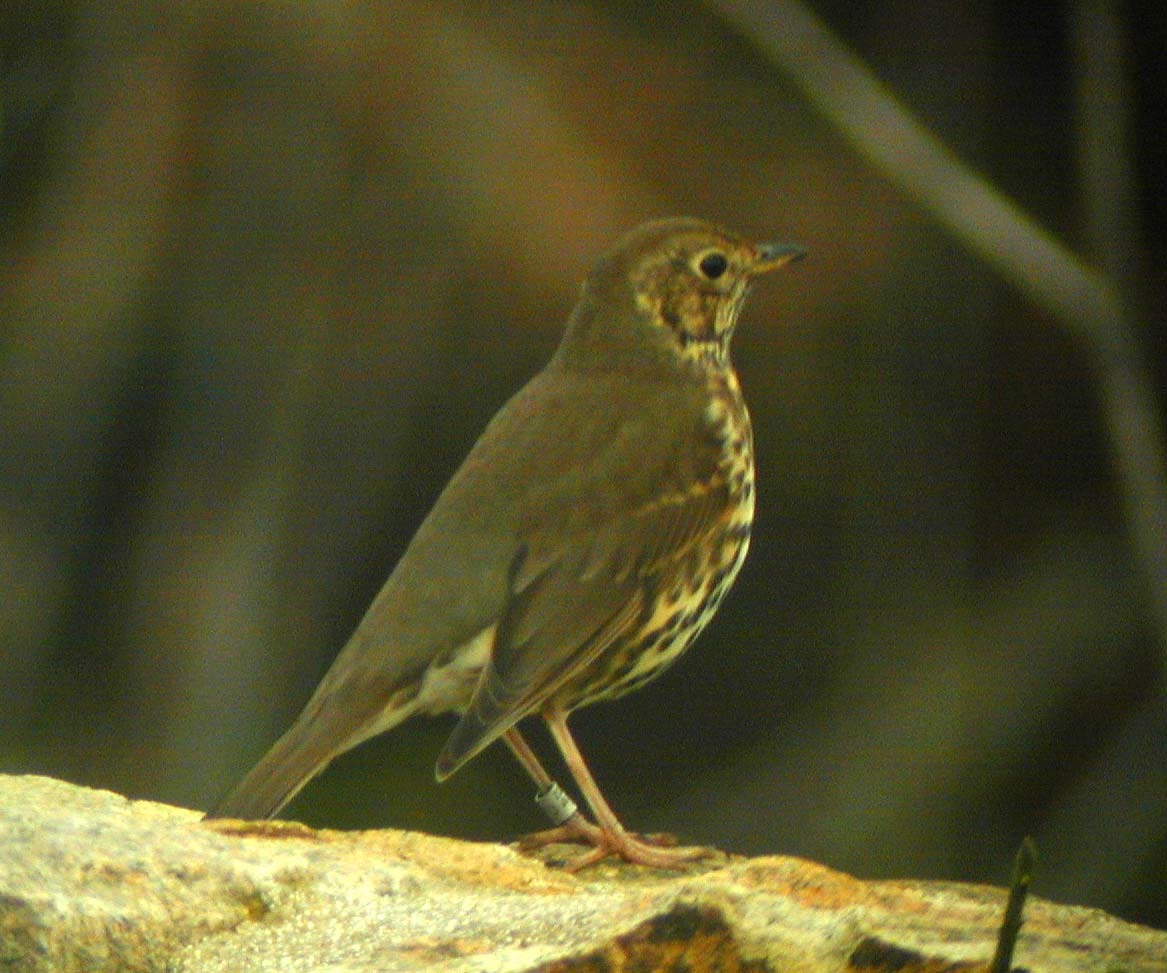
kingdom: Animalia
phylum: Chordata
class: Aves
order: Passeriformes
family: Turdidae
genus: Turdus
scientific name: Turdus philomelos
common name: Song thrush
